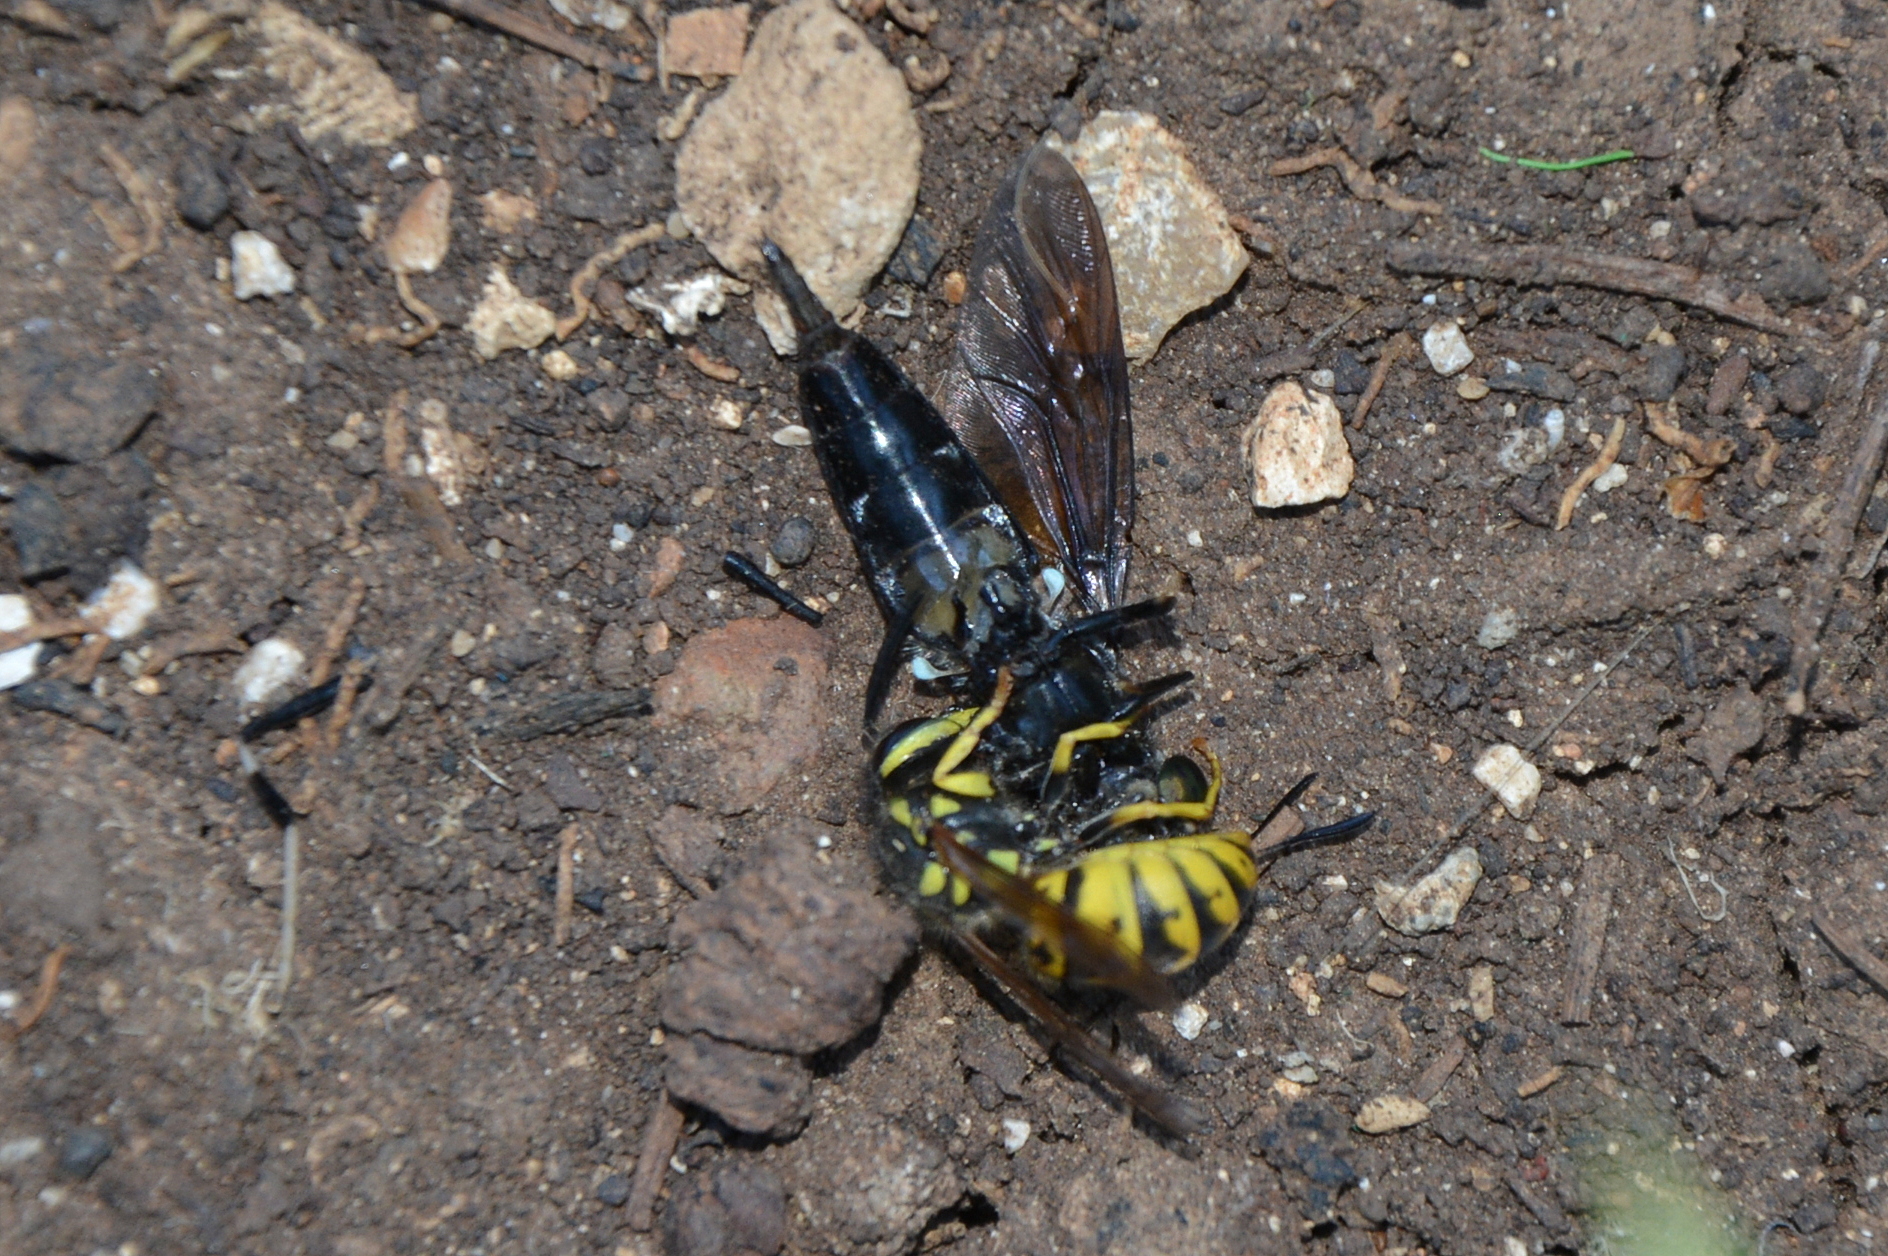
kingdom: Animalia
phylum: Arthropoda
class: Insecta
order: Hymenoptera
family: Vespidae
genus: Vespula
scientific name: Vespula germanica
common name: German wasp
